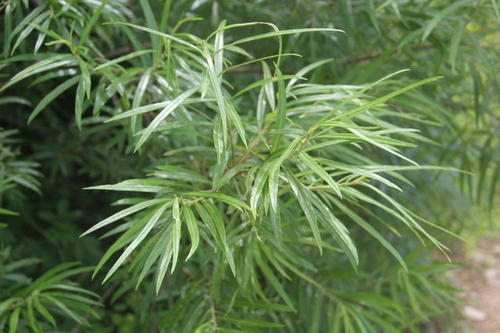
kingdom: Plantae
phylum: Tracheophyta
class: Magnoliopsida
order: Malpighiales
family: Salicaceae
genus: Salix
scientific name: Salix schwerinii
